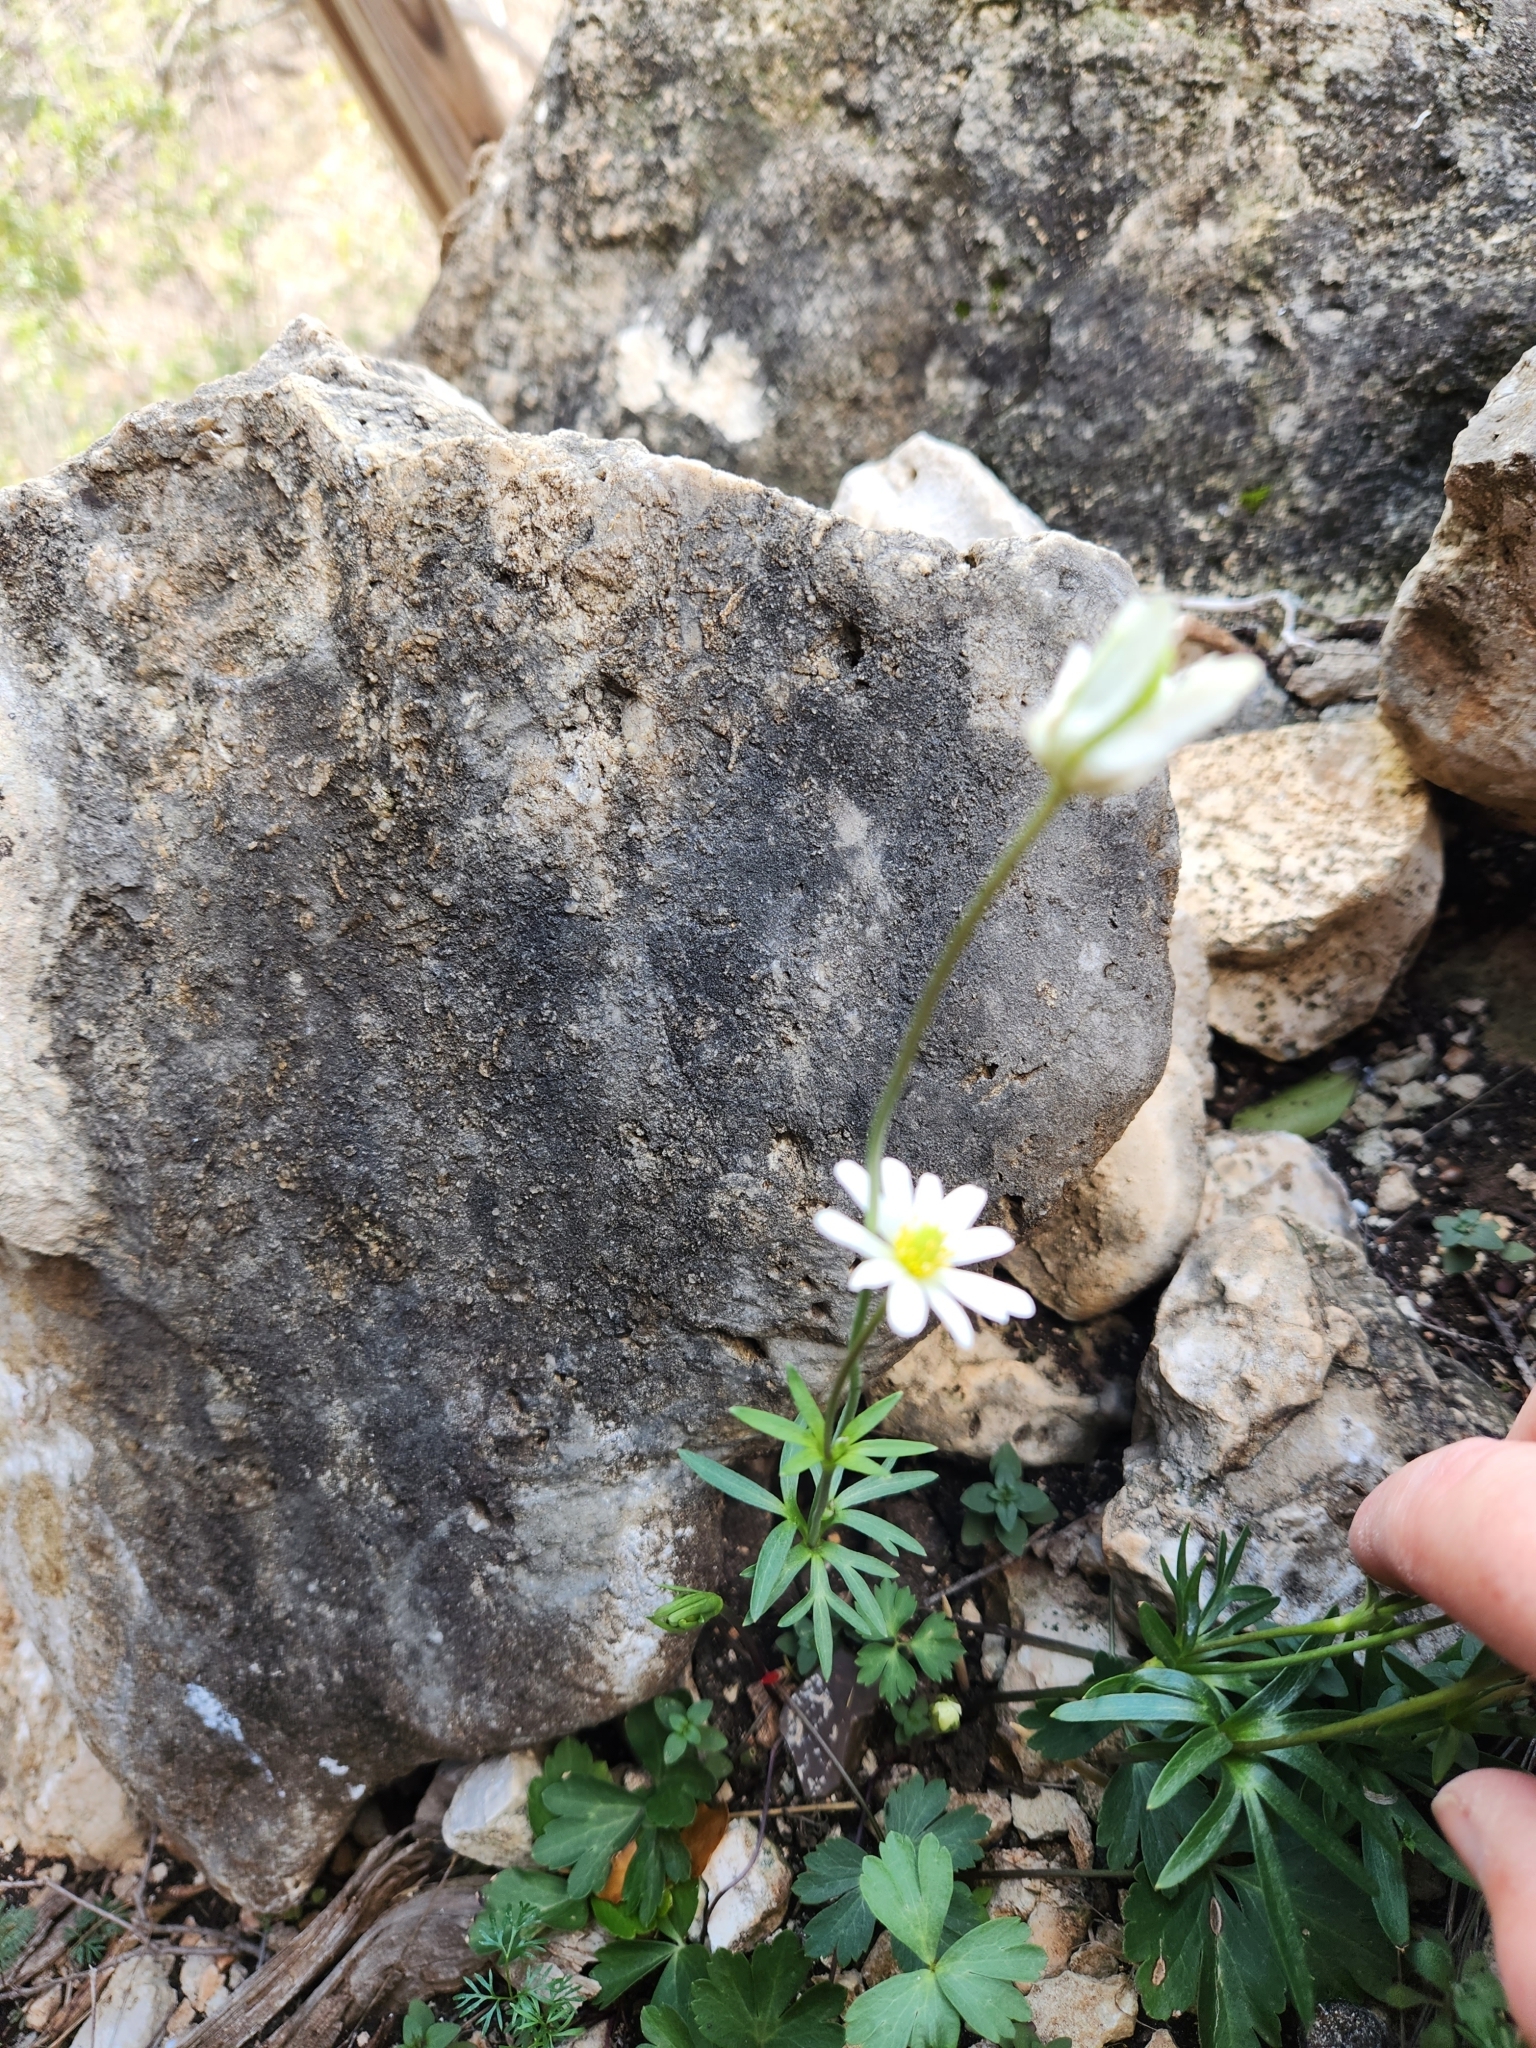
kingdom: Plantae
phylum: Tracheophyta
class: Magnoliopsida
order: Ranunculales
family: Ranunculaceae
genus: Anemone
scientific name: Anemone edwardsiana
